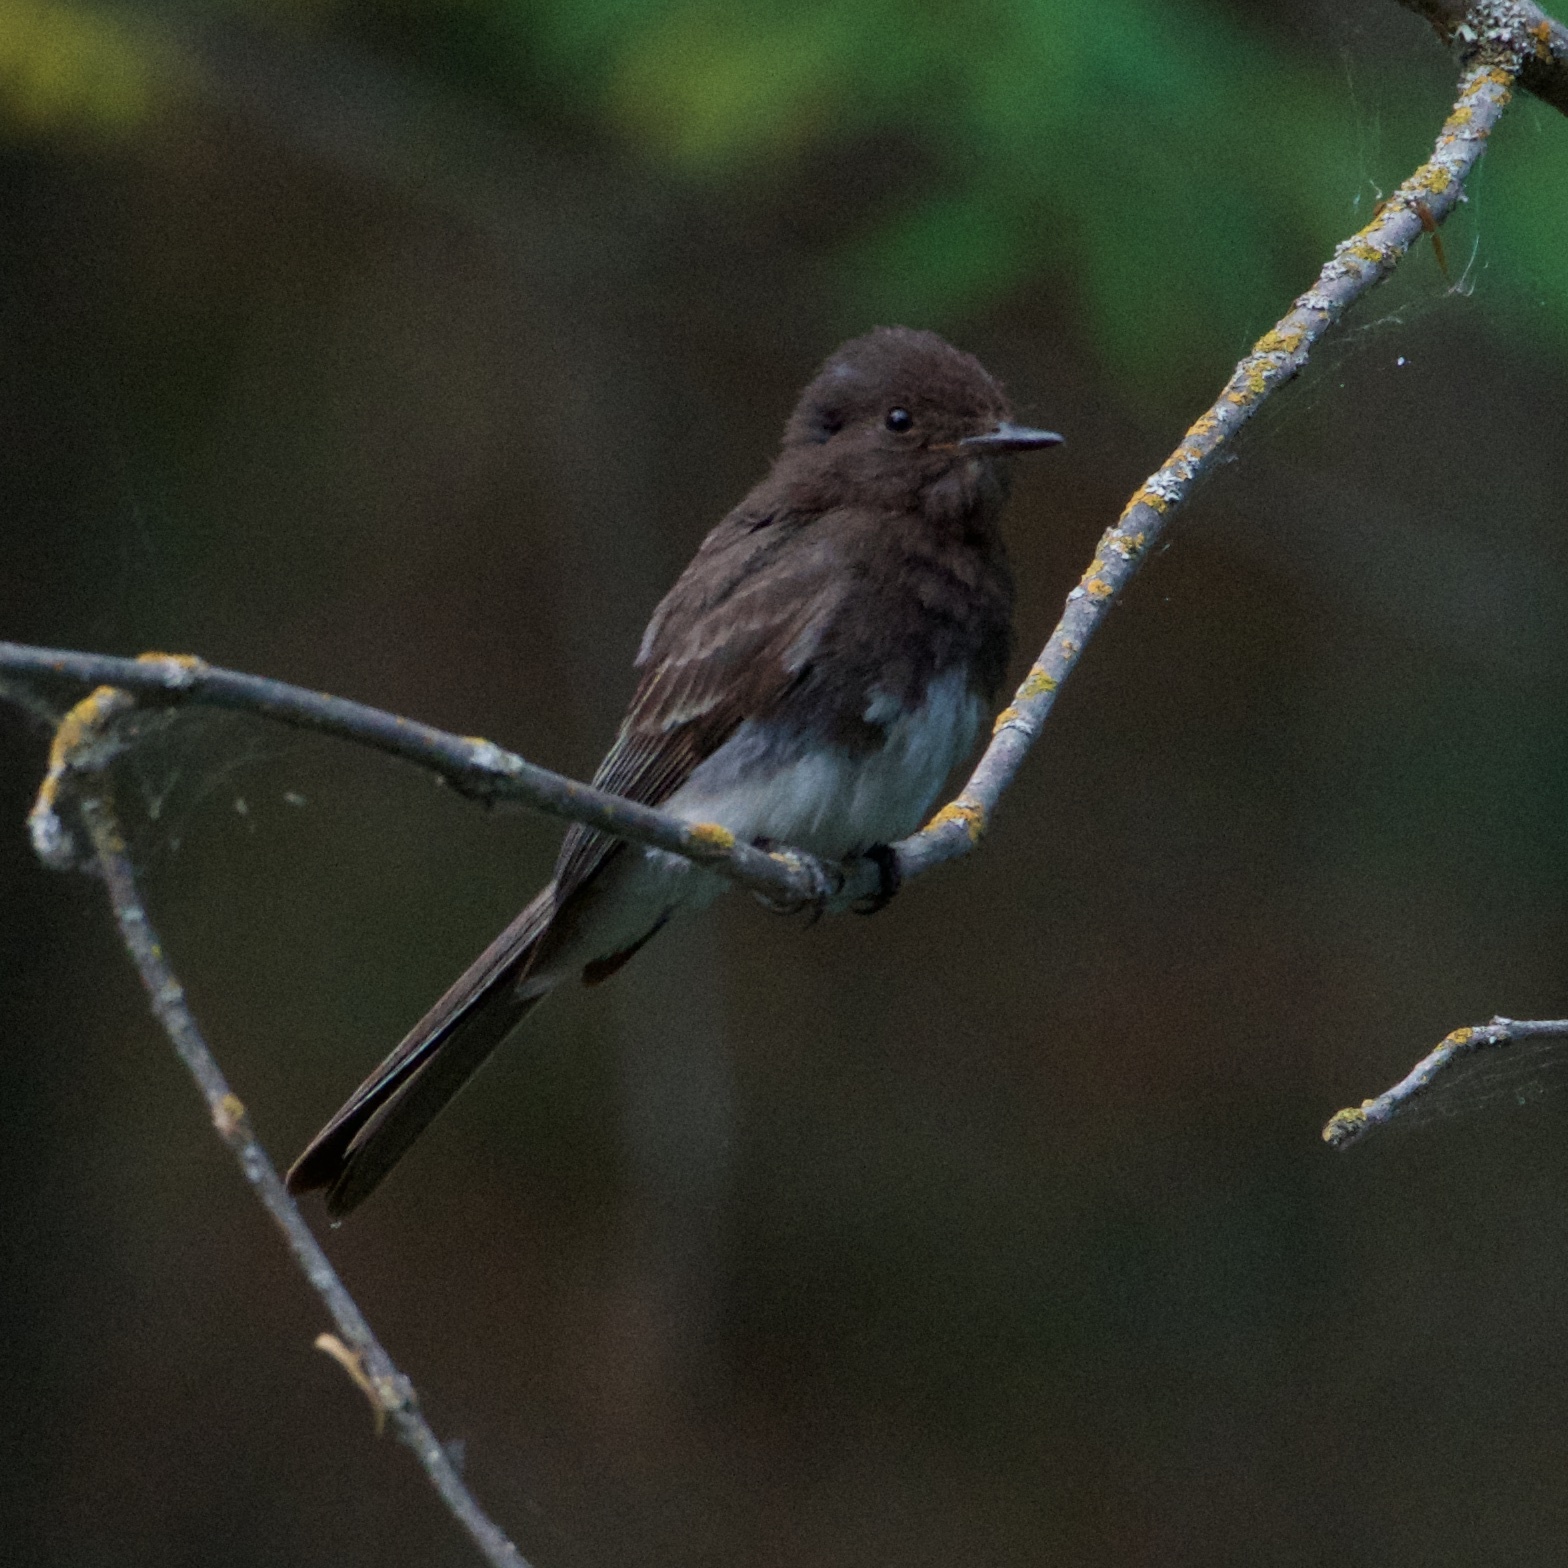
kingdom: Animalia
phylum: Chordata
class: Aves
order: Passeriformes
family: Tyrannidae
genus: Sayornis
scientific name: Sayornis nigricans
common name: Black phoebe
